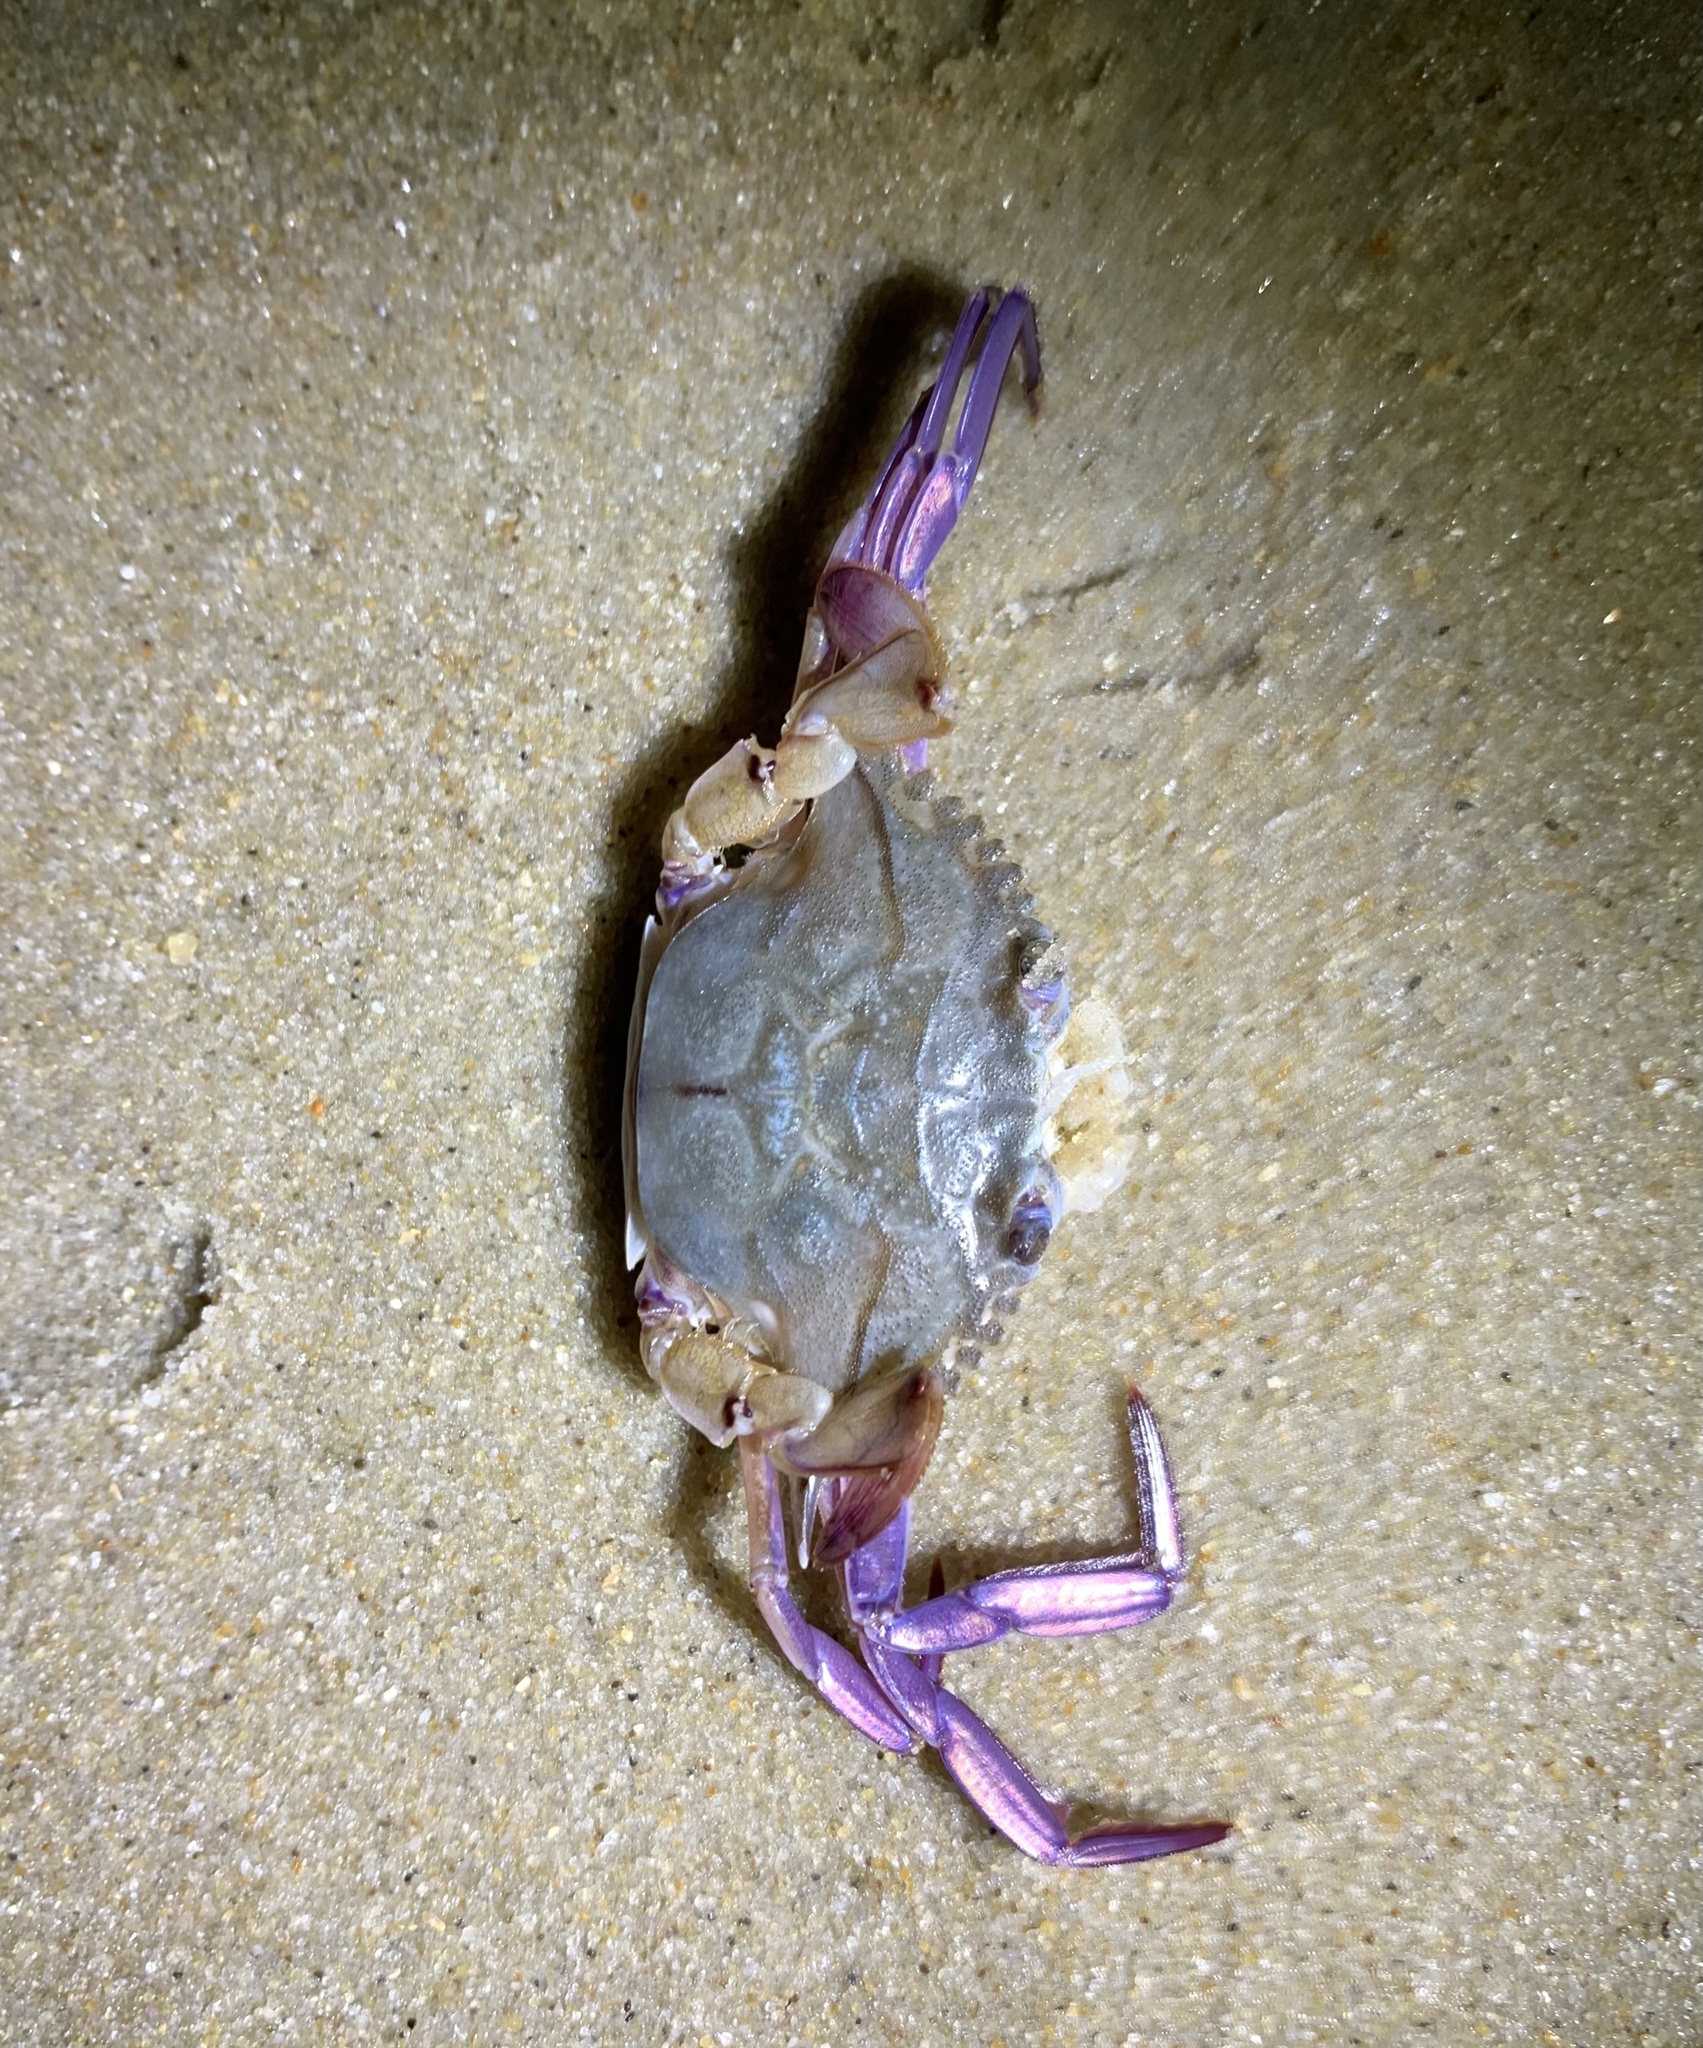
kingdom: Animalia
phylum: Arthropoda
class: Malacostraca
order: Decapoda
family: Portunidae
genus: Achelous
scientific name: Achelous gibbesii
